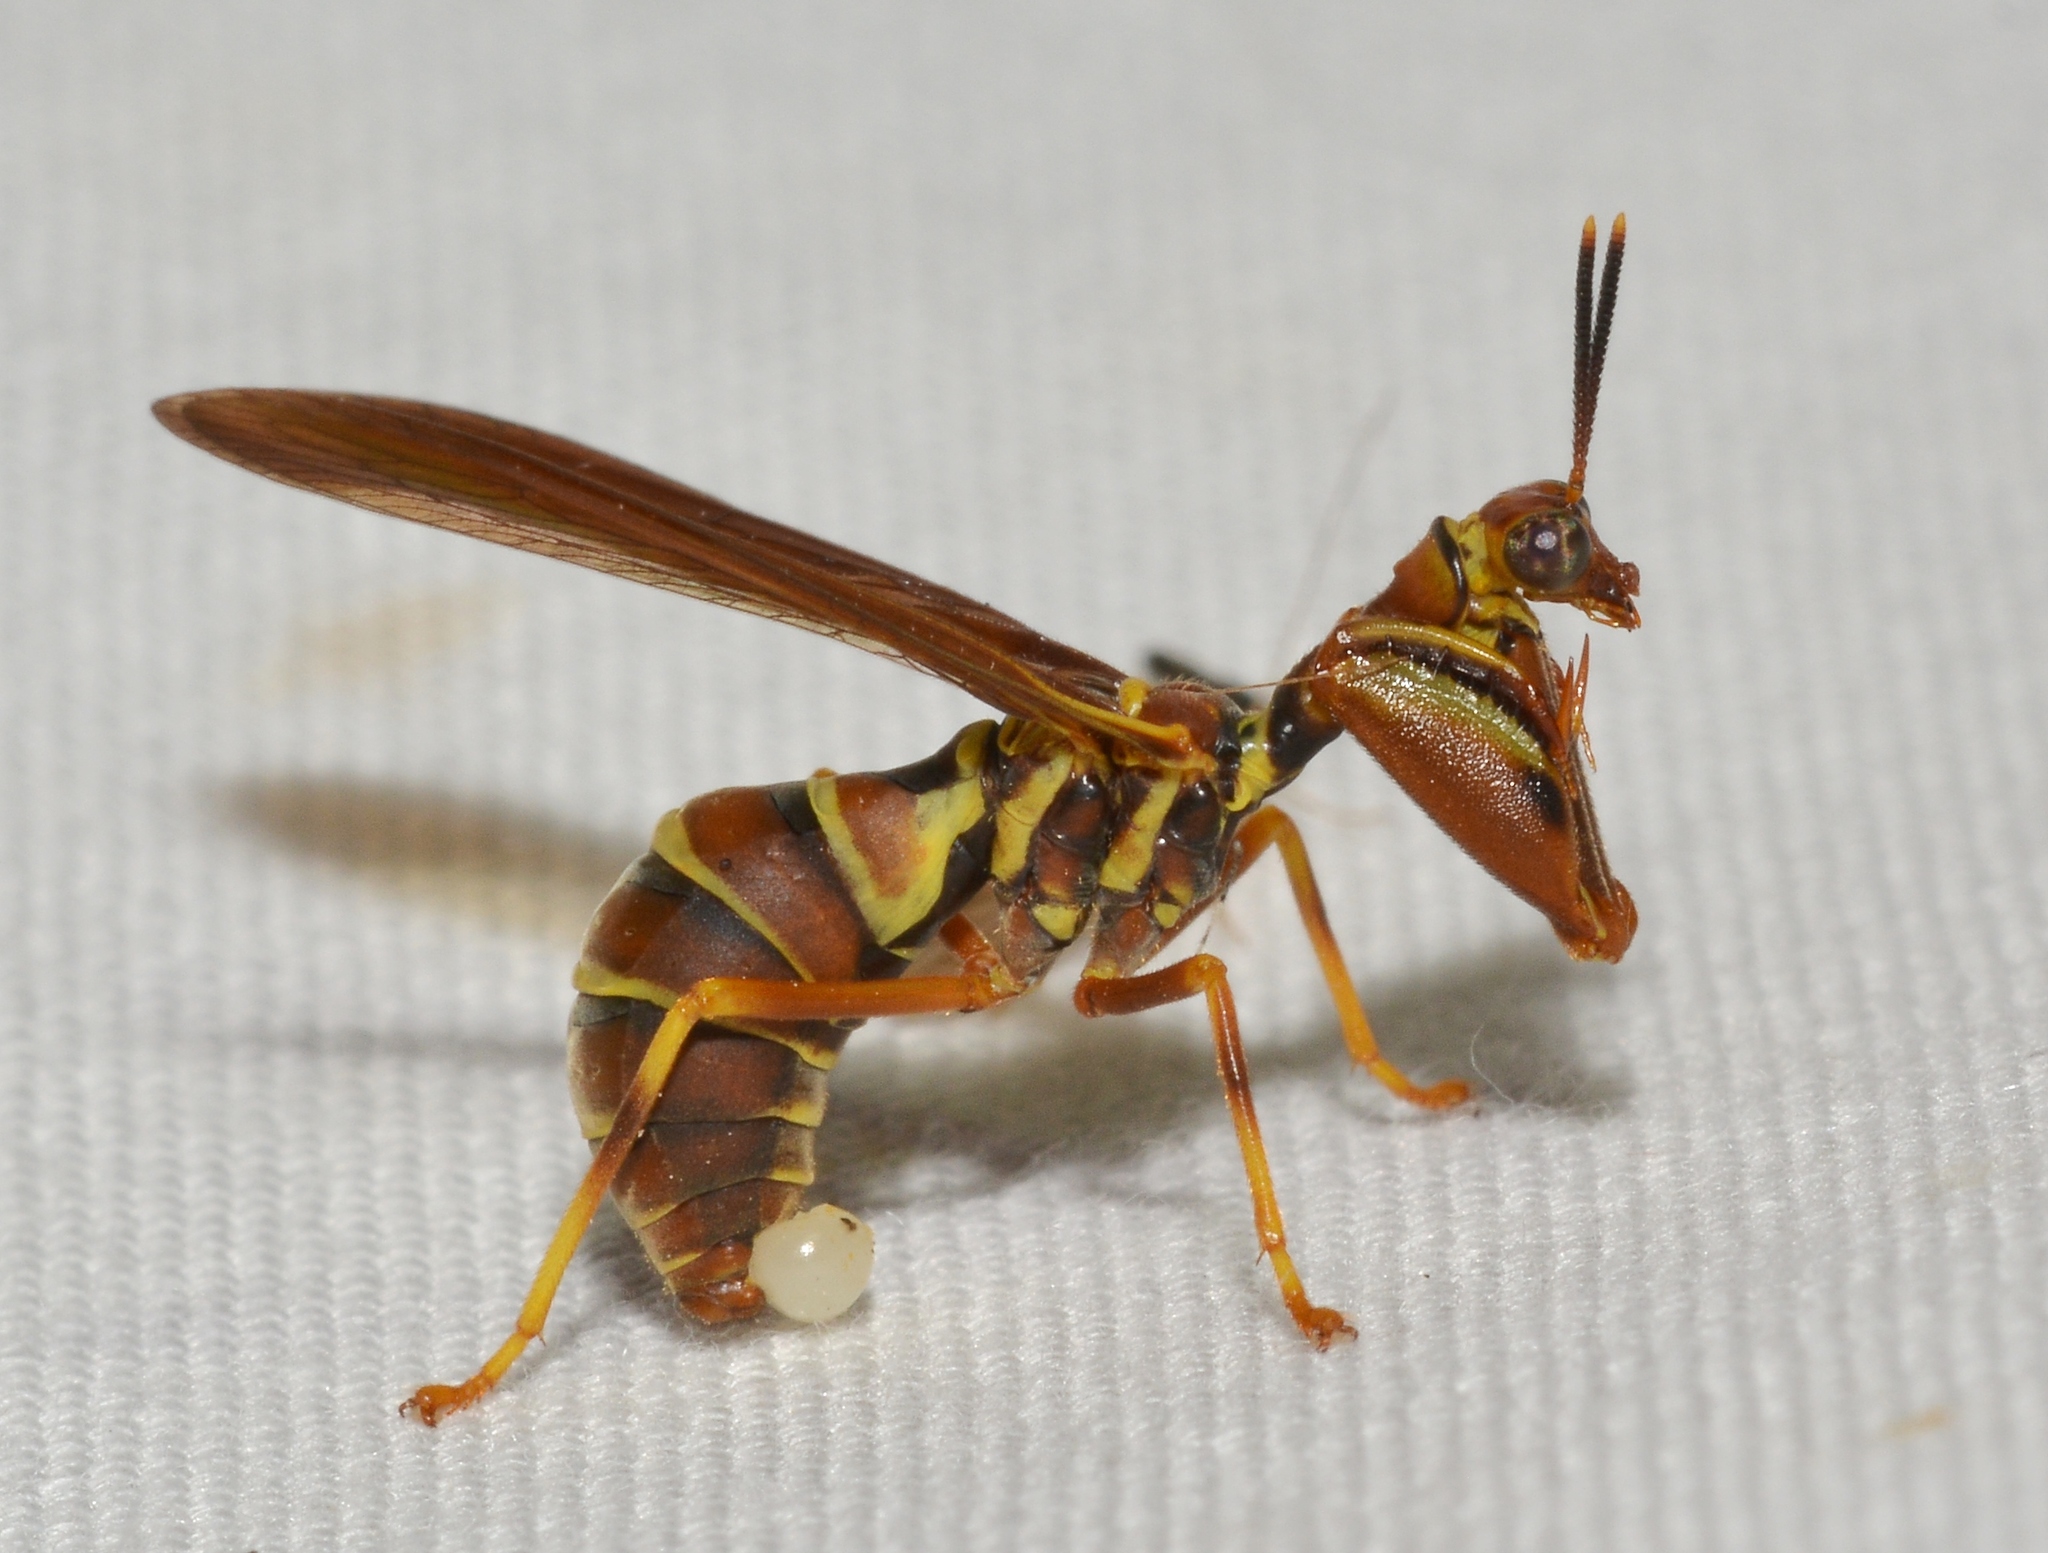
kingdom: Animalia
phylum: Arthropoda
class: Insecta
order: Neuroptera
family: Mantispidae
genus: Climaciella
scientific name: Climaciella brunnea
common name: Brown wasp mantidfly
